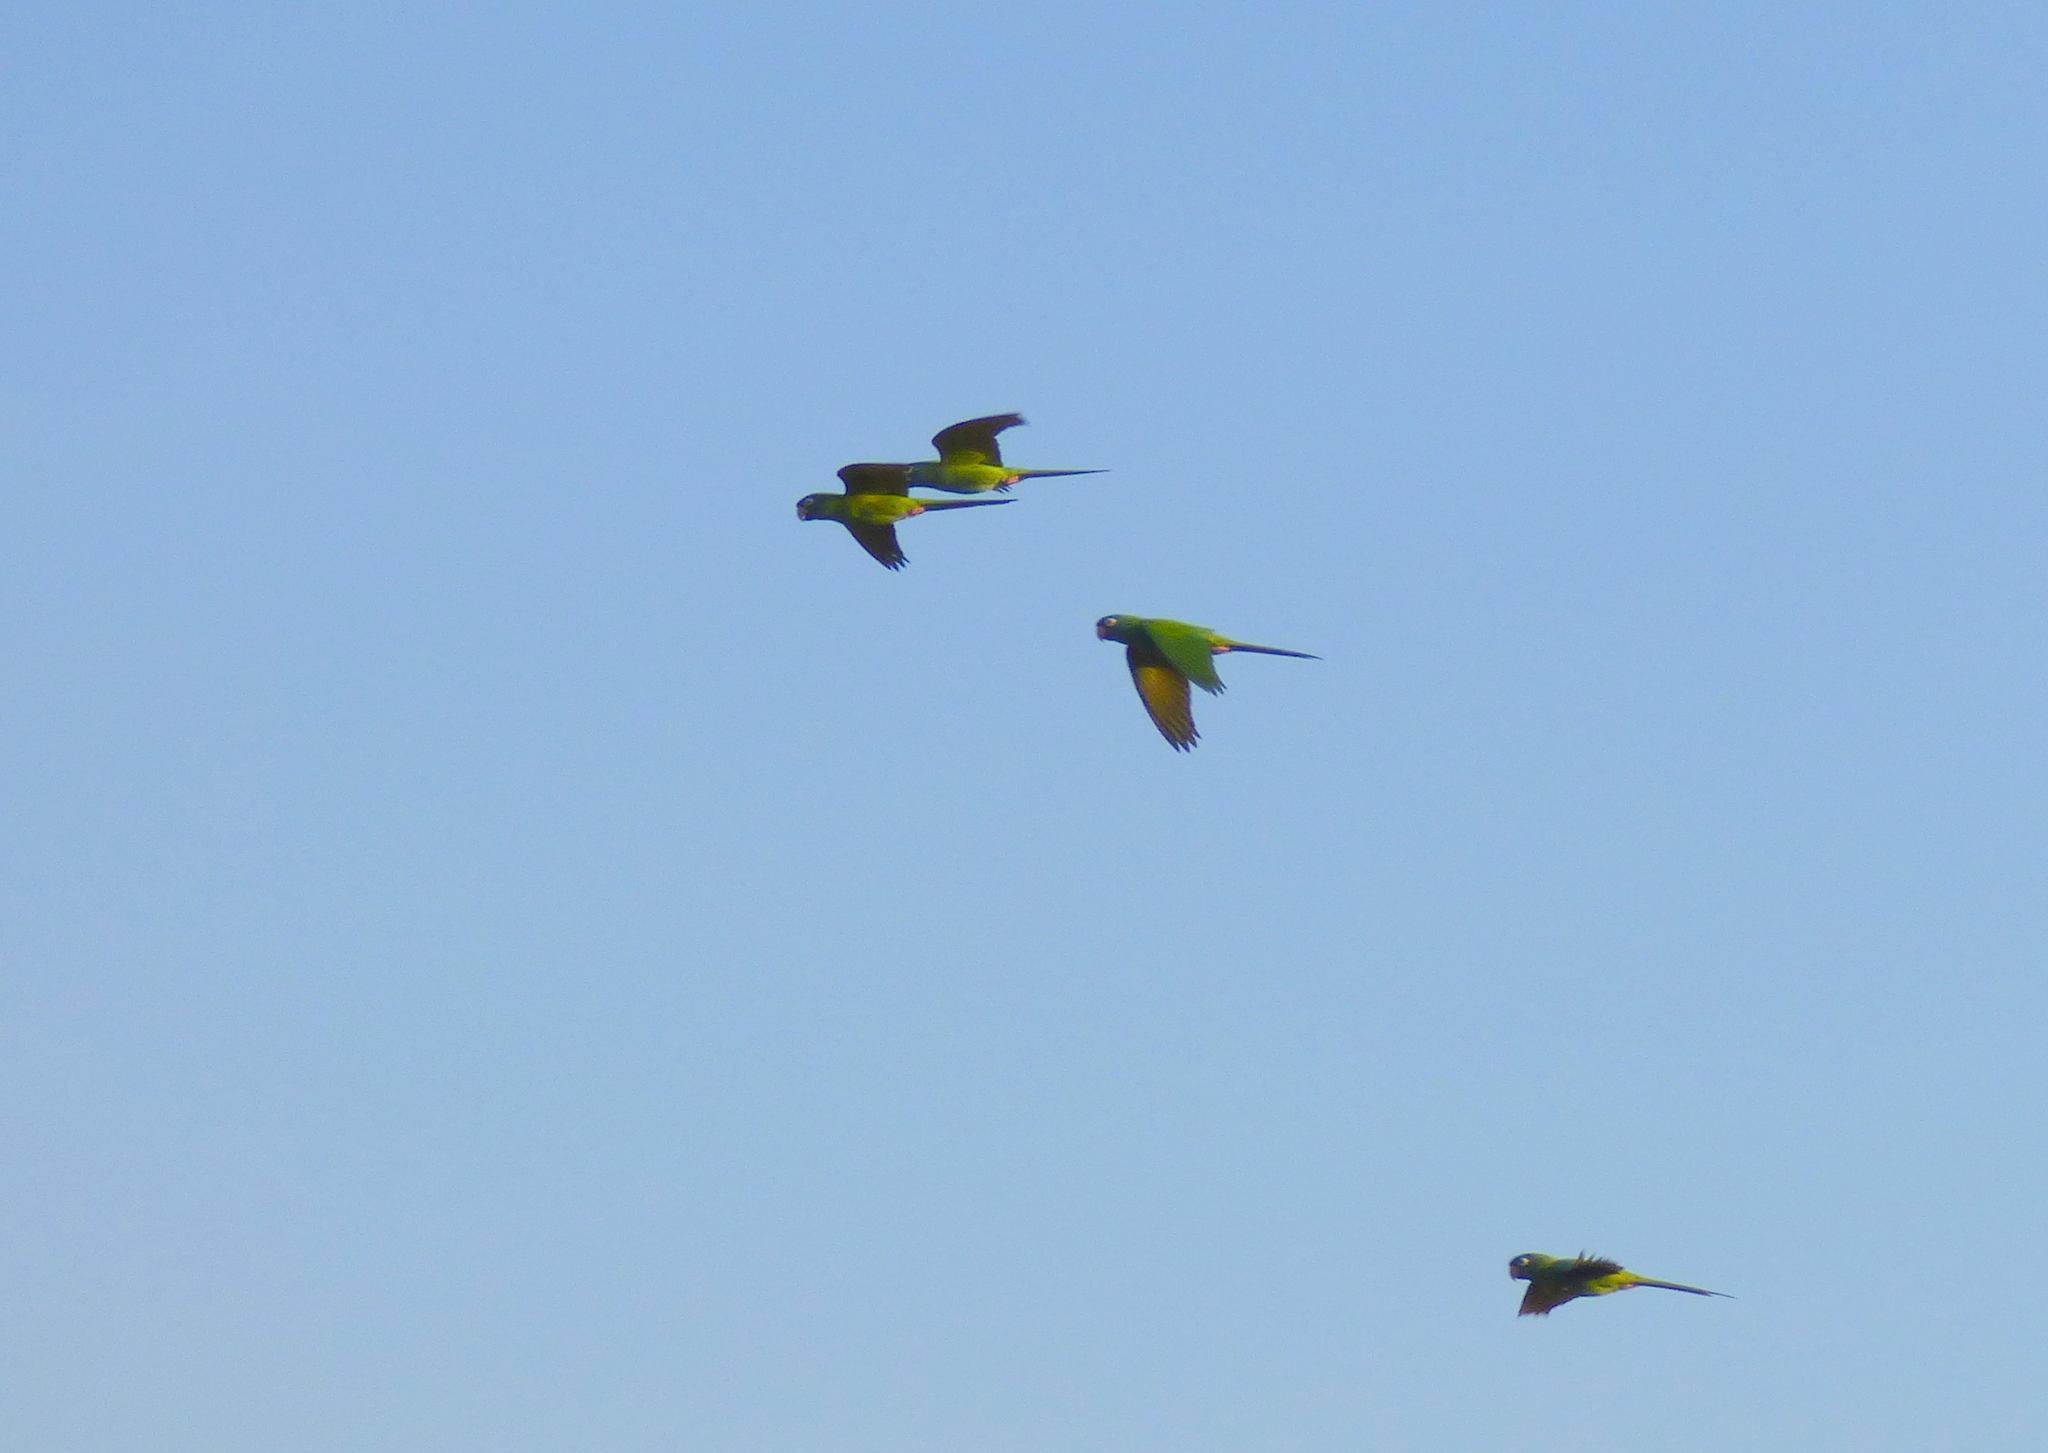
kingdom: Animalia
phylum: Chordata
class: Aves
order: Psittaciformes
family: Psittacidae
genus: Aratinga
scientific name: Aratinga acuticaudata
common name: Blue-crowned parakeet
